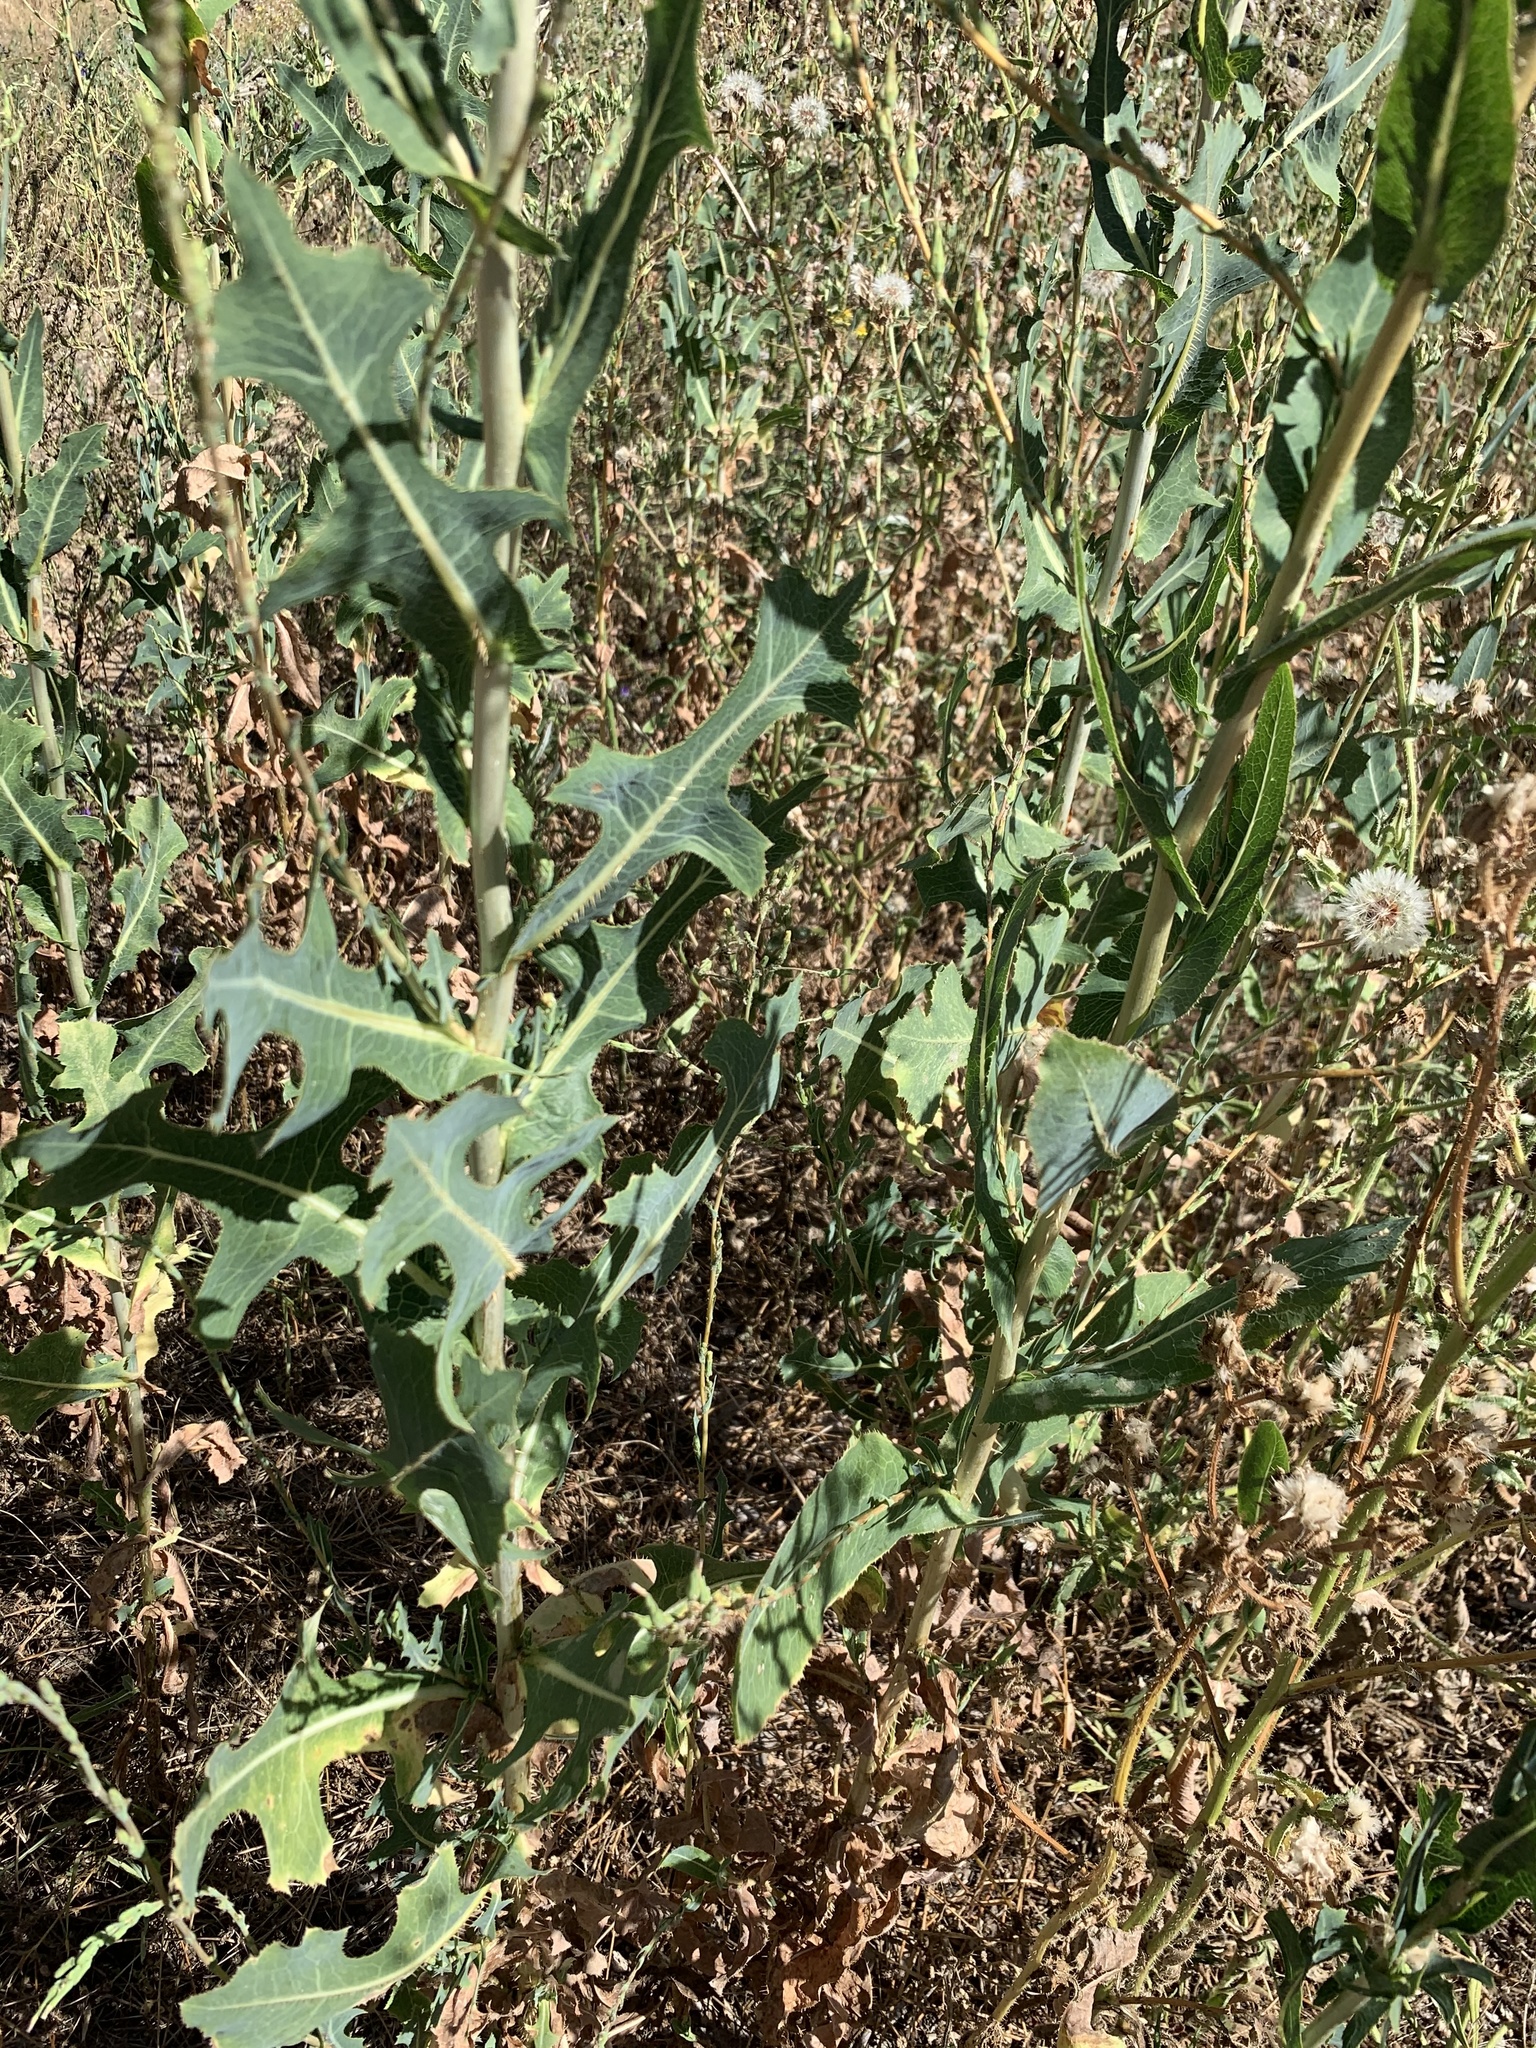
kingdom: Plantae
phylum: Tracheophyta
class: Magnoliopsida
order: Asterales
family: Asteraceae
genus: Lactuca
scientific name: Lactuca serriola
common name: Prickly lettuce
